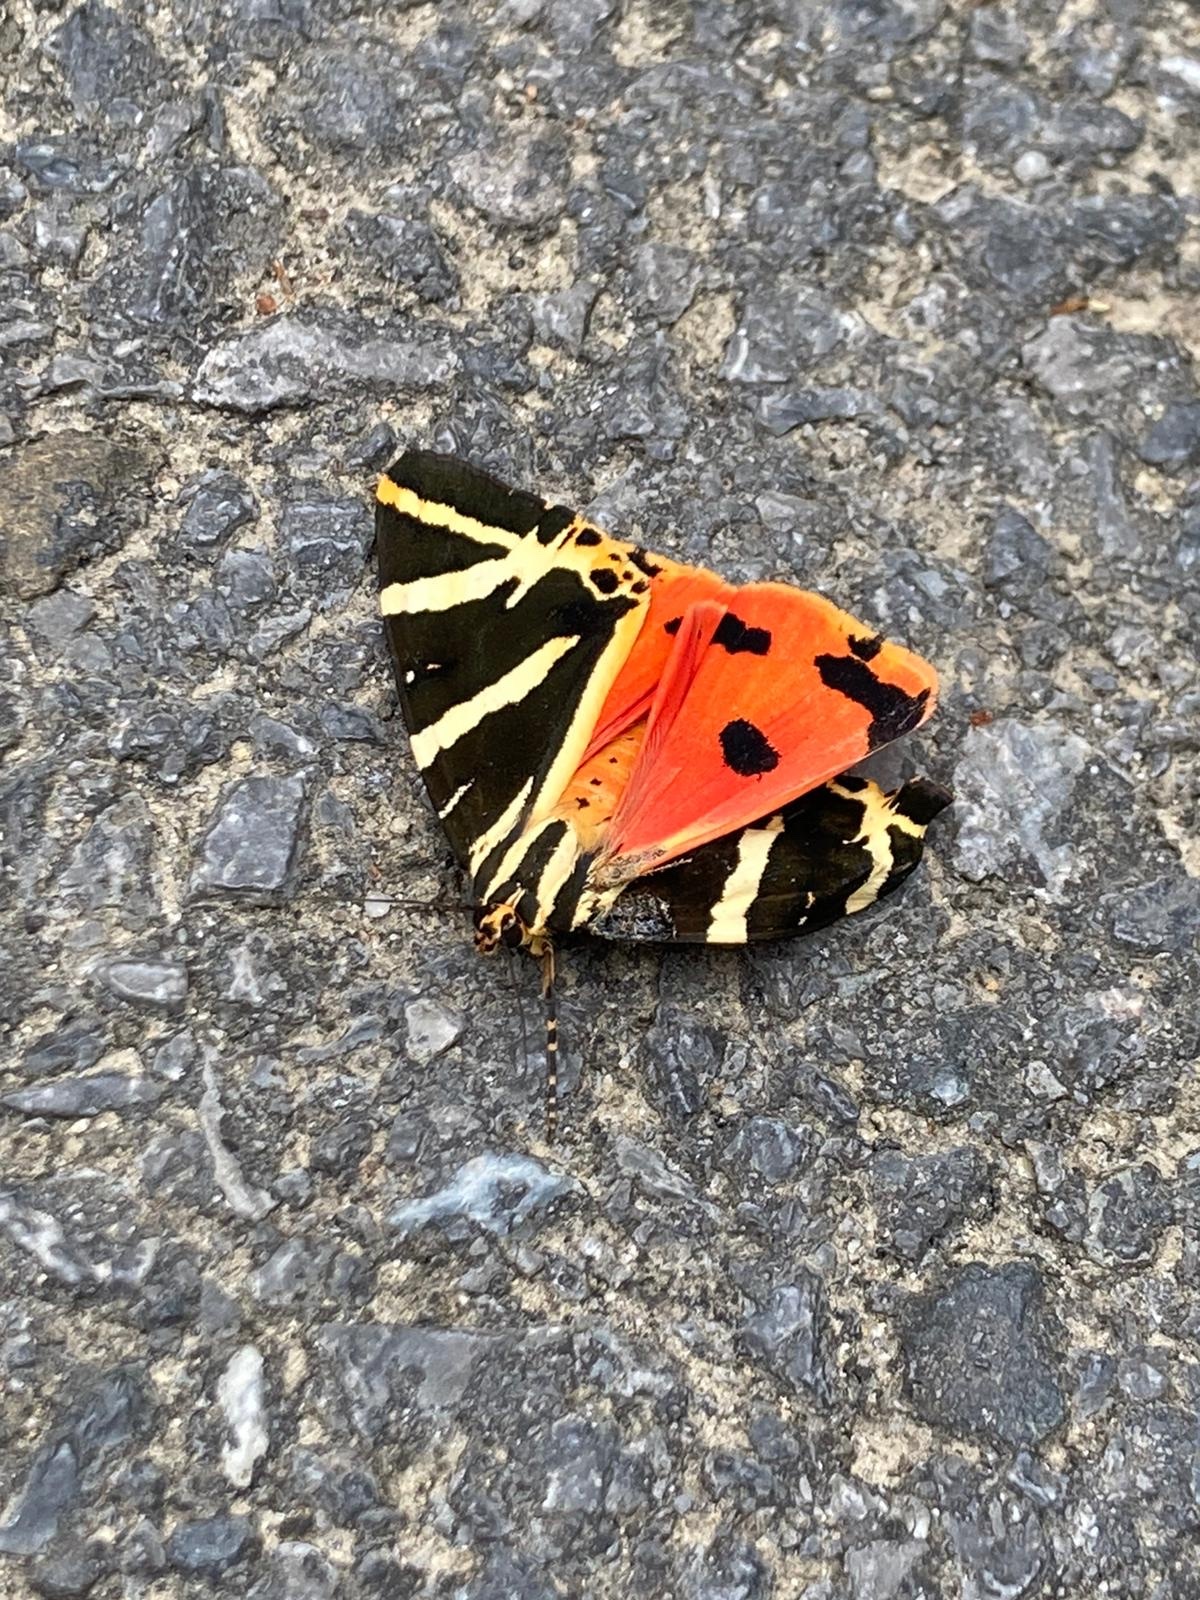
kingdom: Animalia
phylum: Arthropoda
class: Insecta
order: Lepidoptera
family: Erebidae
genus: Euplagia
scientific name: Euplagia quadripunctaria
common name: Jersey tiger
